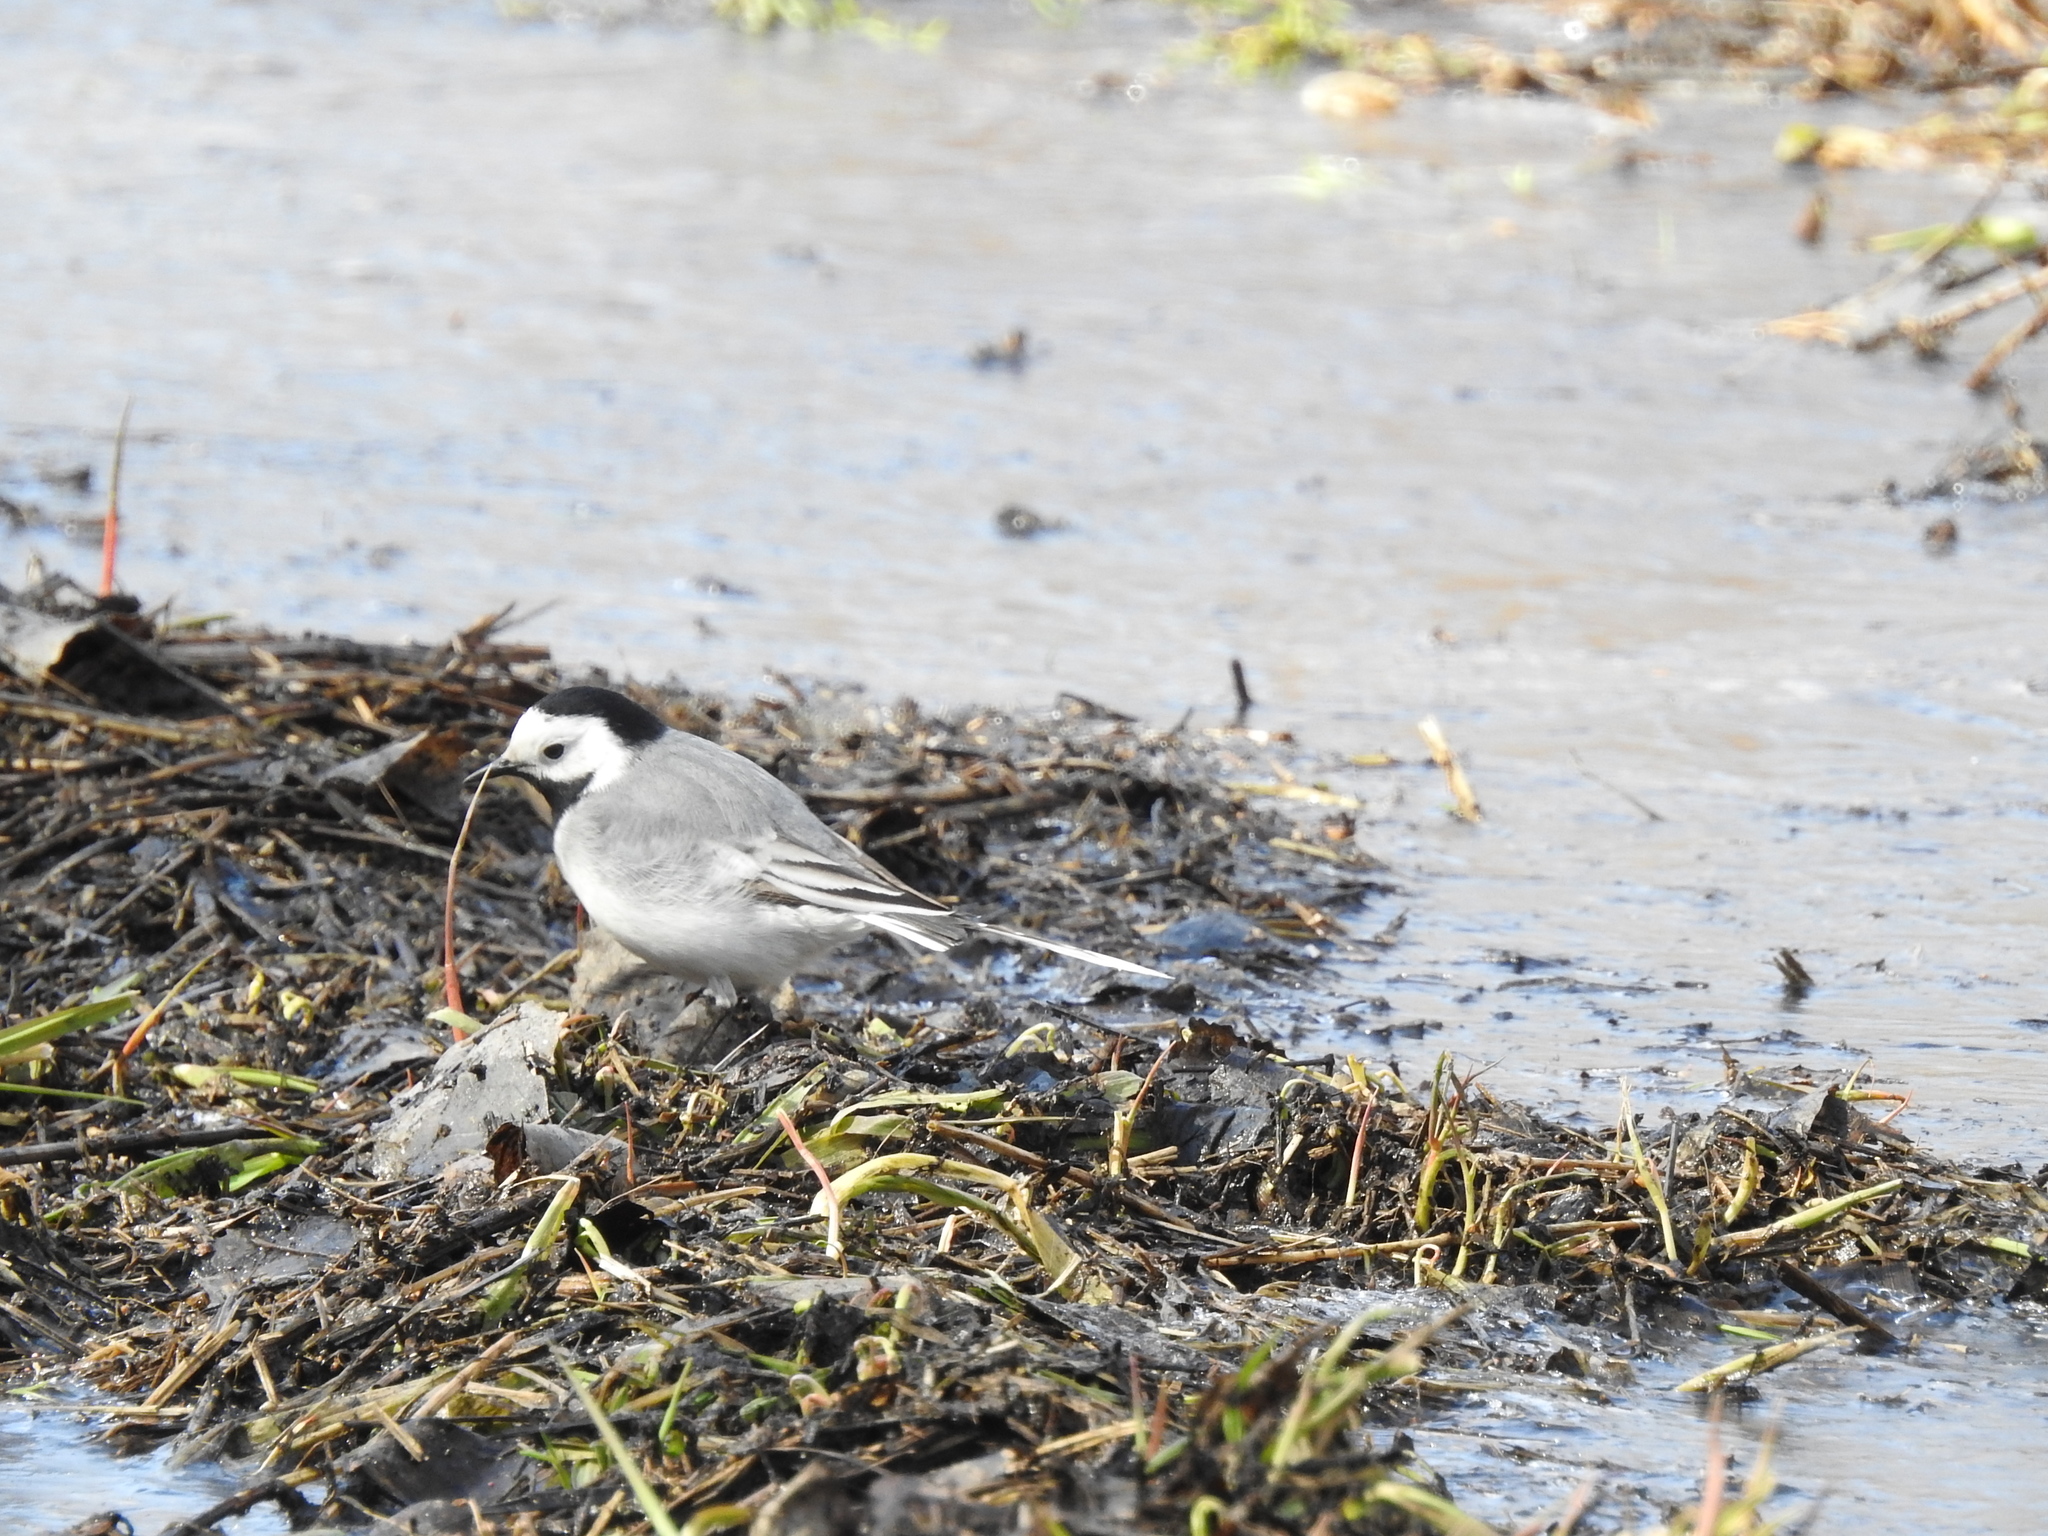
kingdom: Animalia
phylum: Chordata
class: Aves
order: Passeriformes
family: Motacillidae
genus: Motacilla
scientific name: Motacilla alba
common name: White wagtail
